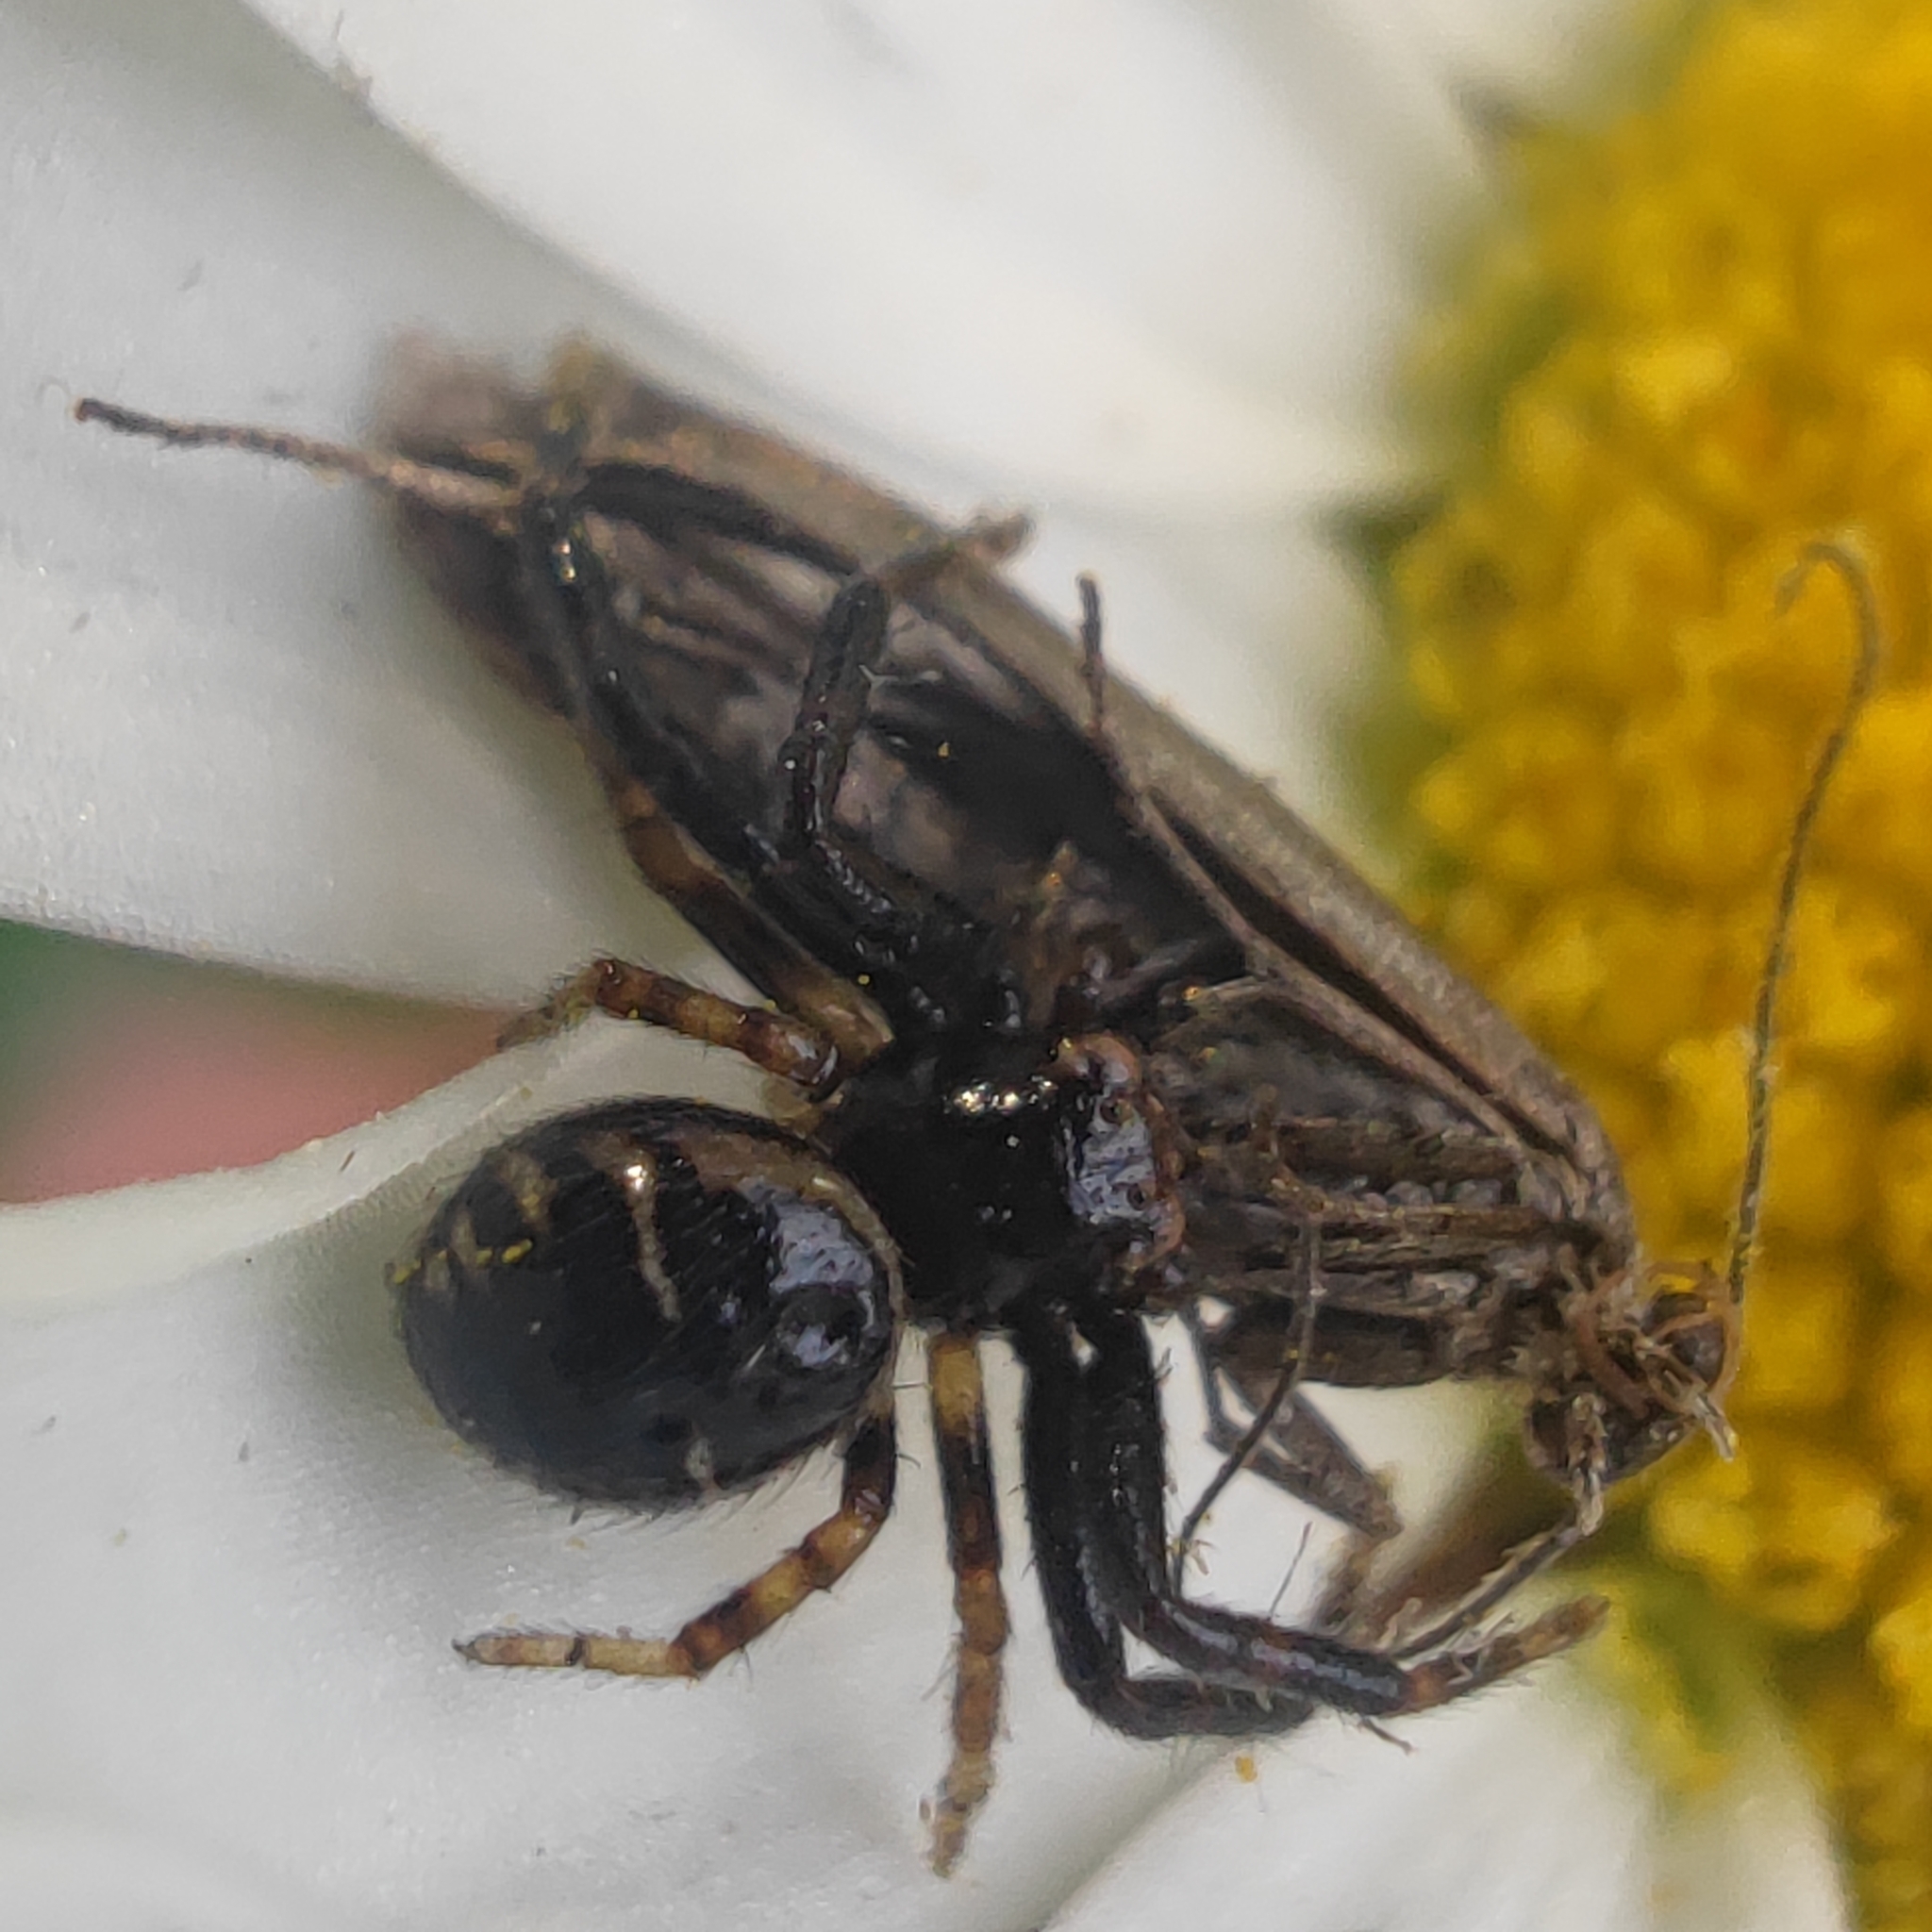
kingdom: Animalia
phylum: Arthropoda
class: Arachnida
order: Araneae
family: Thomisidae
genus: Synema
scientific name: Synema globosum
